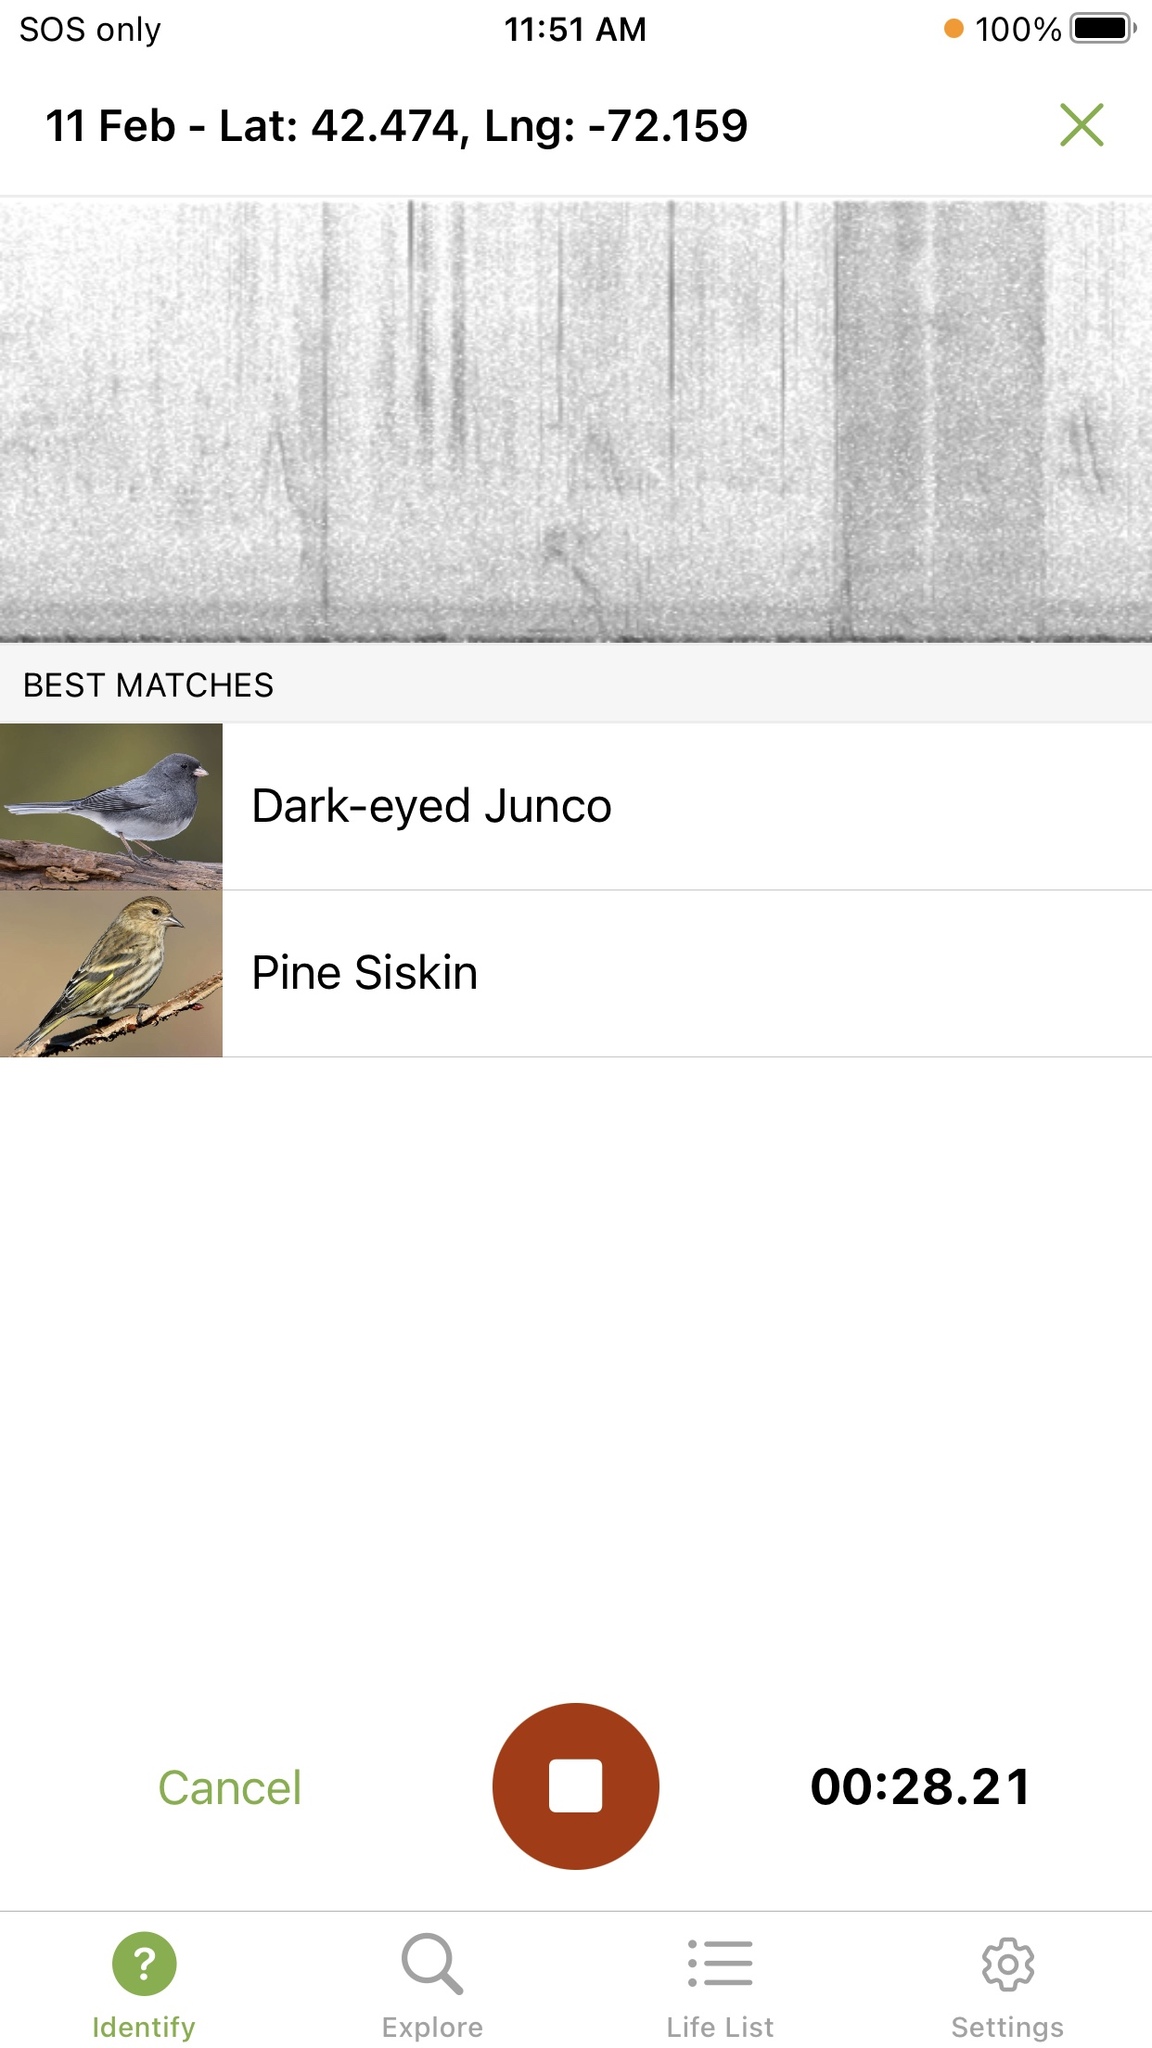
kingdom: Animalia
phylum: Chordata
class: Aves
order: Passeriformes
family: Fringillidae
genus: Spinus
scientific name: Spinus pinus
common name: Pine siskin
